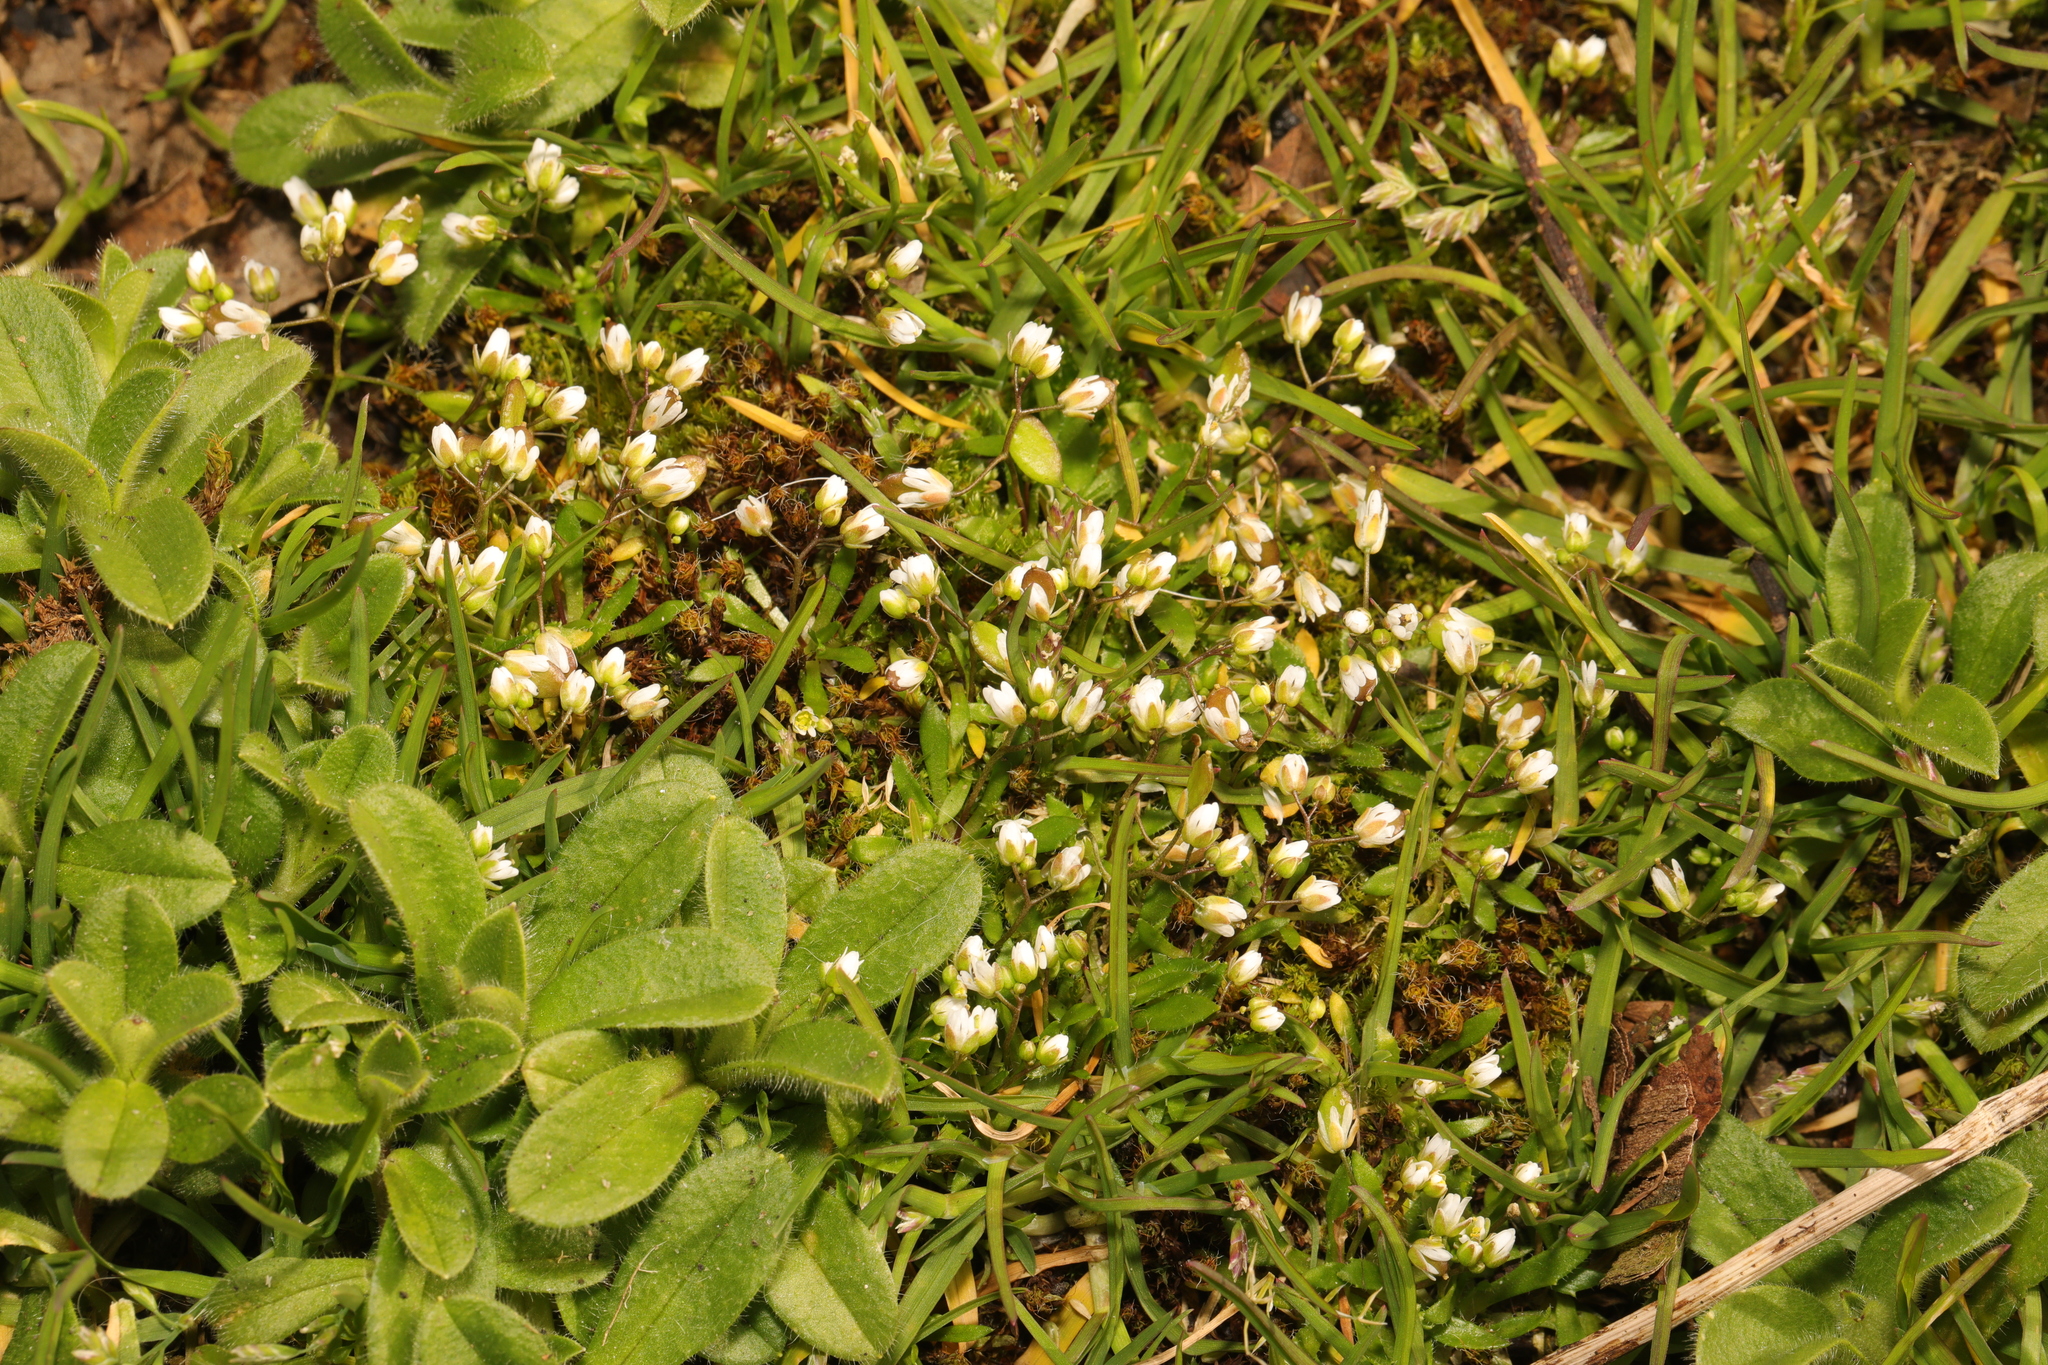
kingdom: Plantae
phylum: Tracheophyta
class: Magnoliopsida
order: Brassicales
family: Brassicaceae
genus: Draba
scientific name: Draba verna
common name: Spring draba
